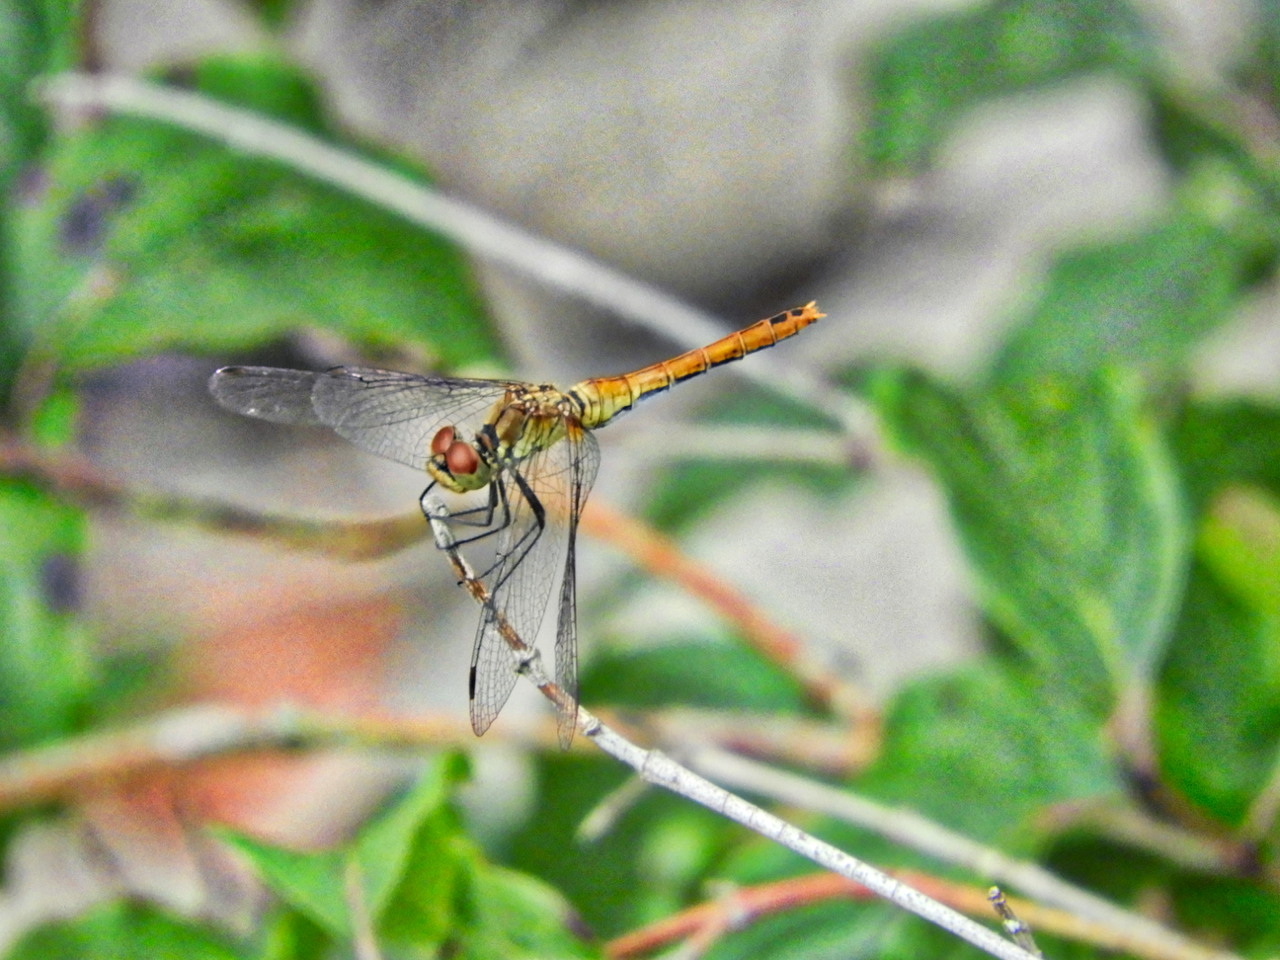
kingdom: Animalia
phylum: Arthropoda
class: Insecta
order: Odonata
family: Libellulidae
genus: Sympetrum
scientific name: Sympetrum sanguineum
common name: Ruddy darter
